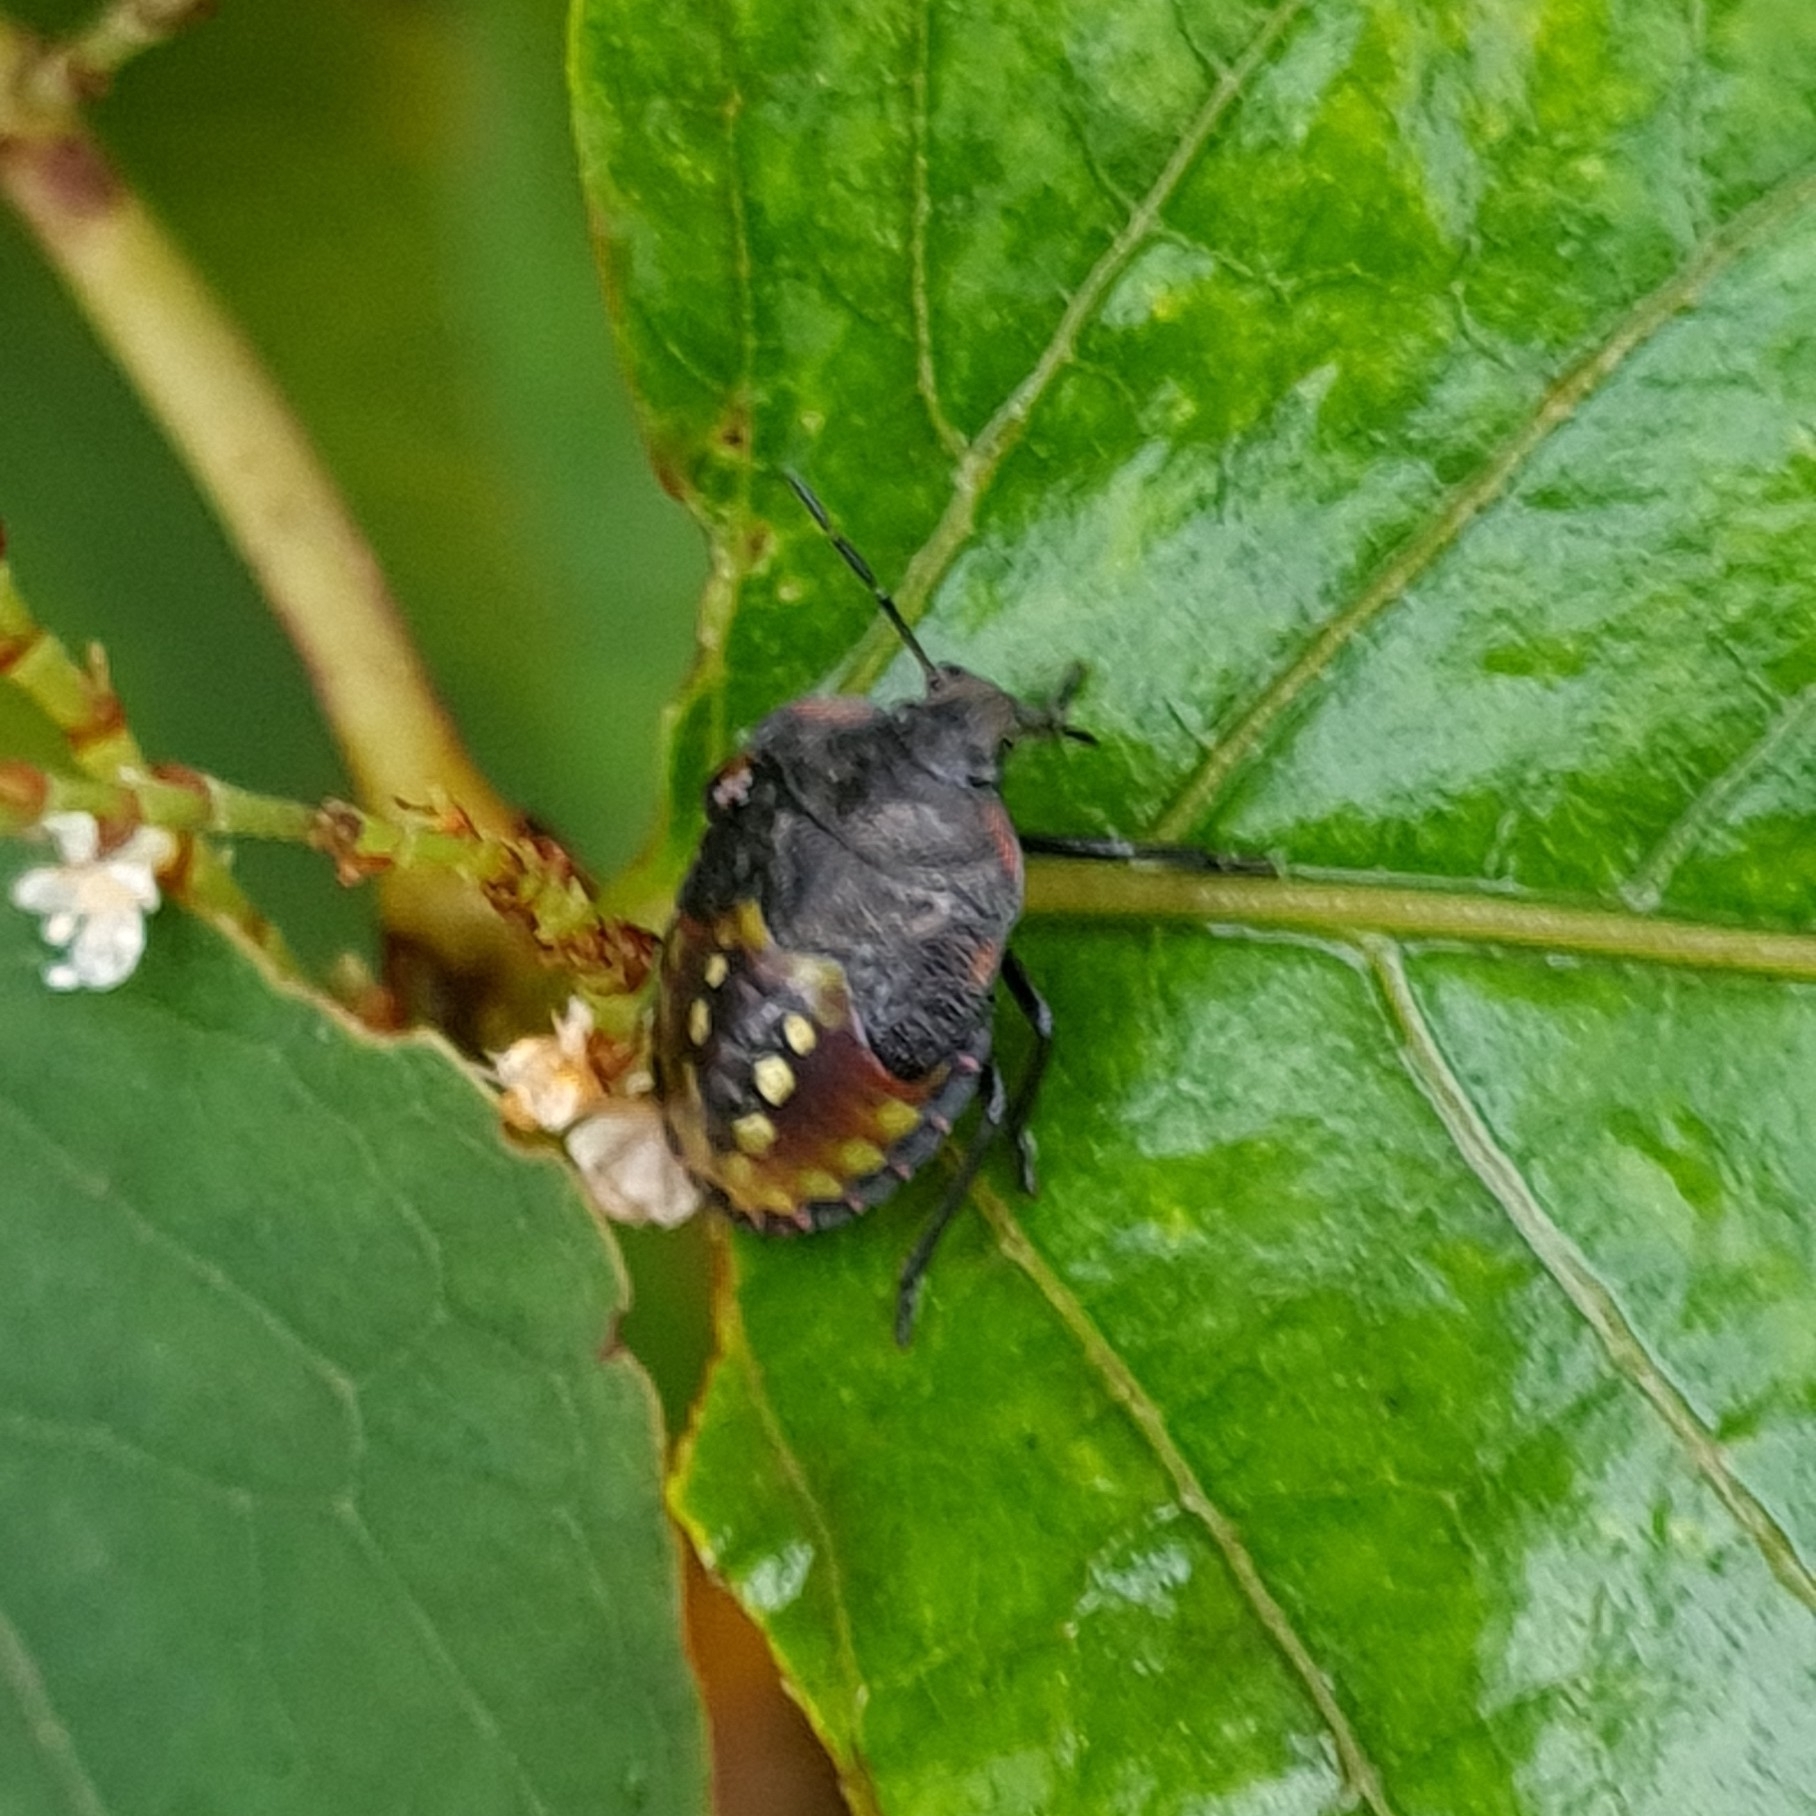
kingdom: Animalia
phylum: Arthropoda
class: Insecta
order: Hemiptera
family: Pentatomidae
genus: Nezara
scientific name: Nezara viridula
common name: Southern green stink bug
